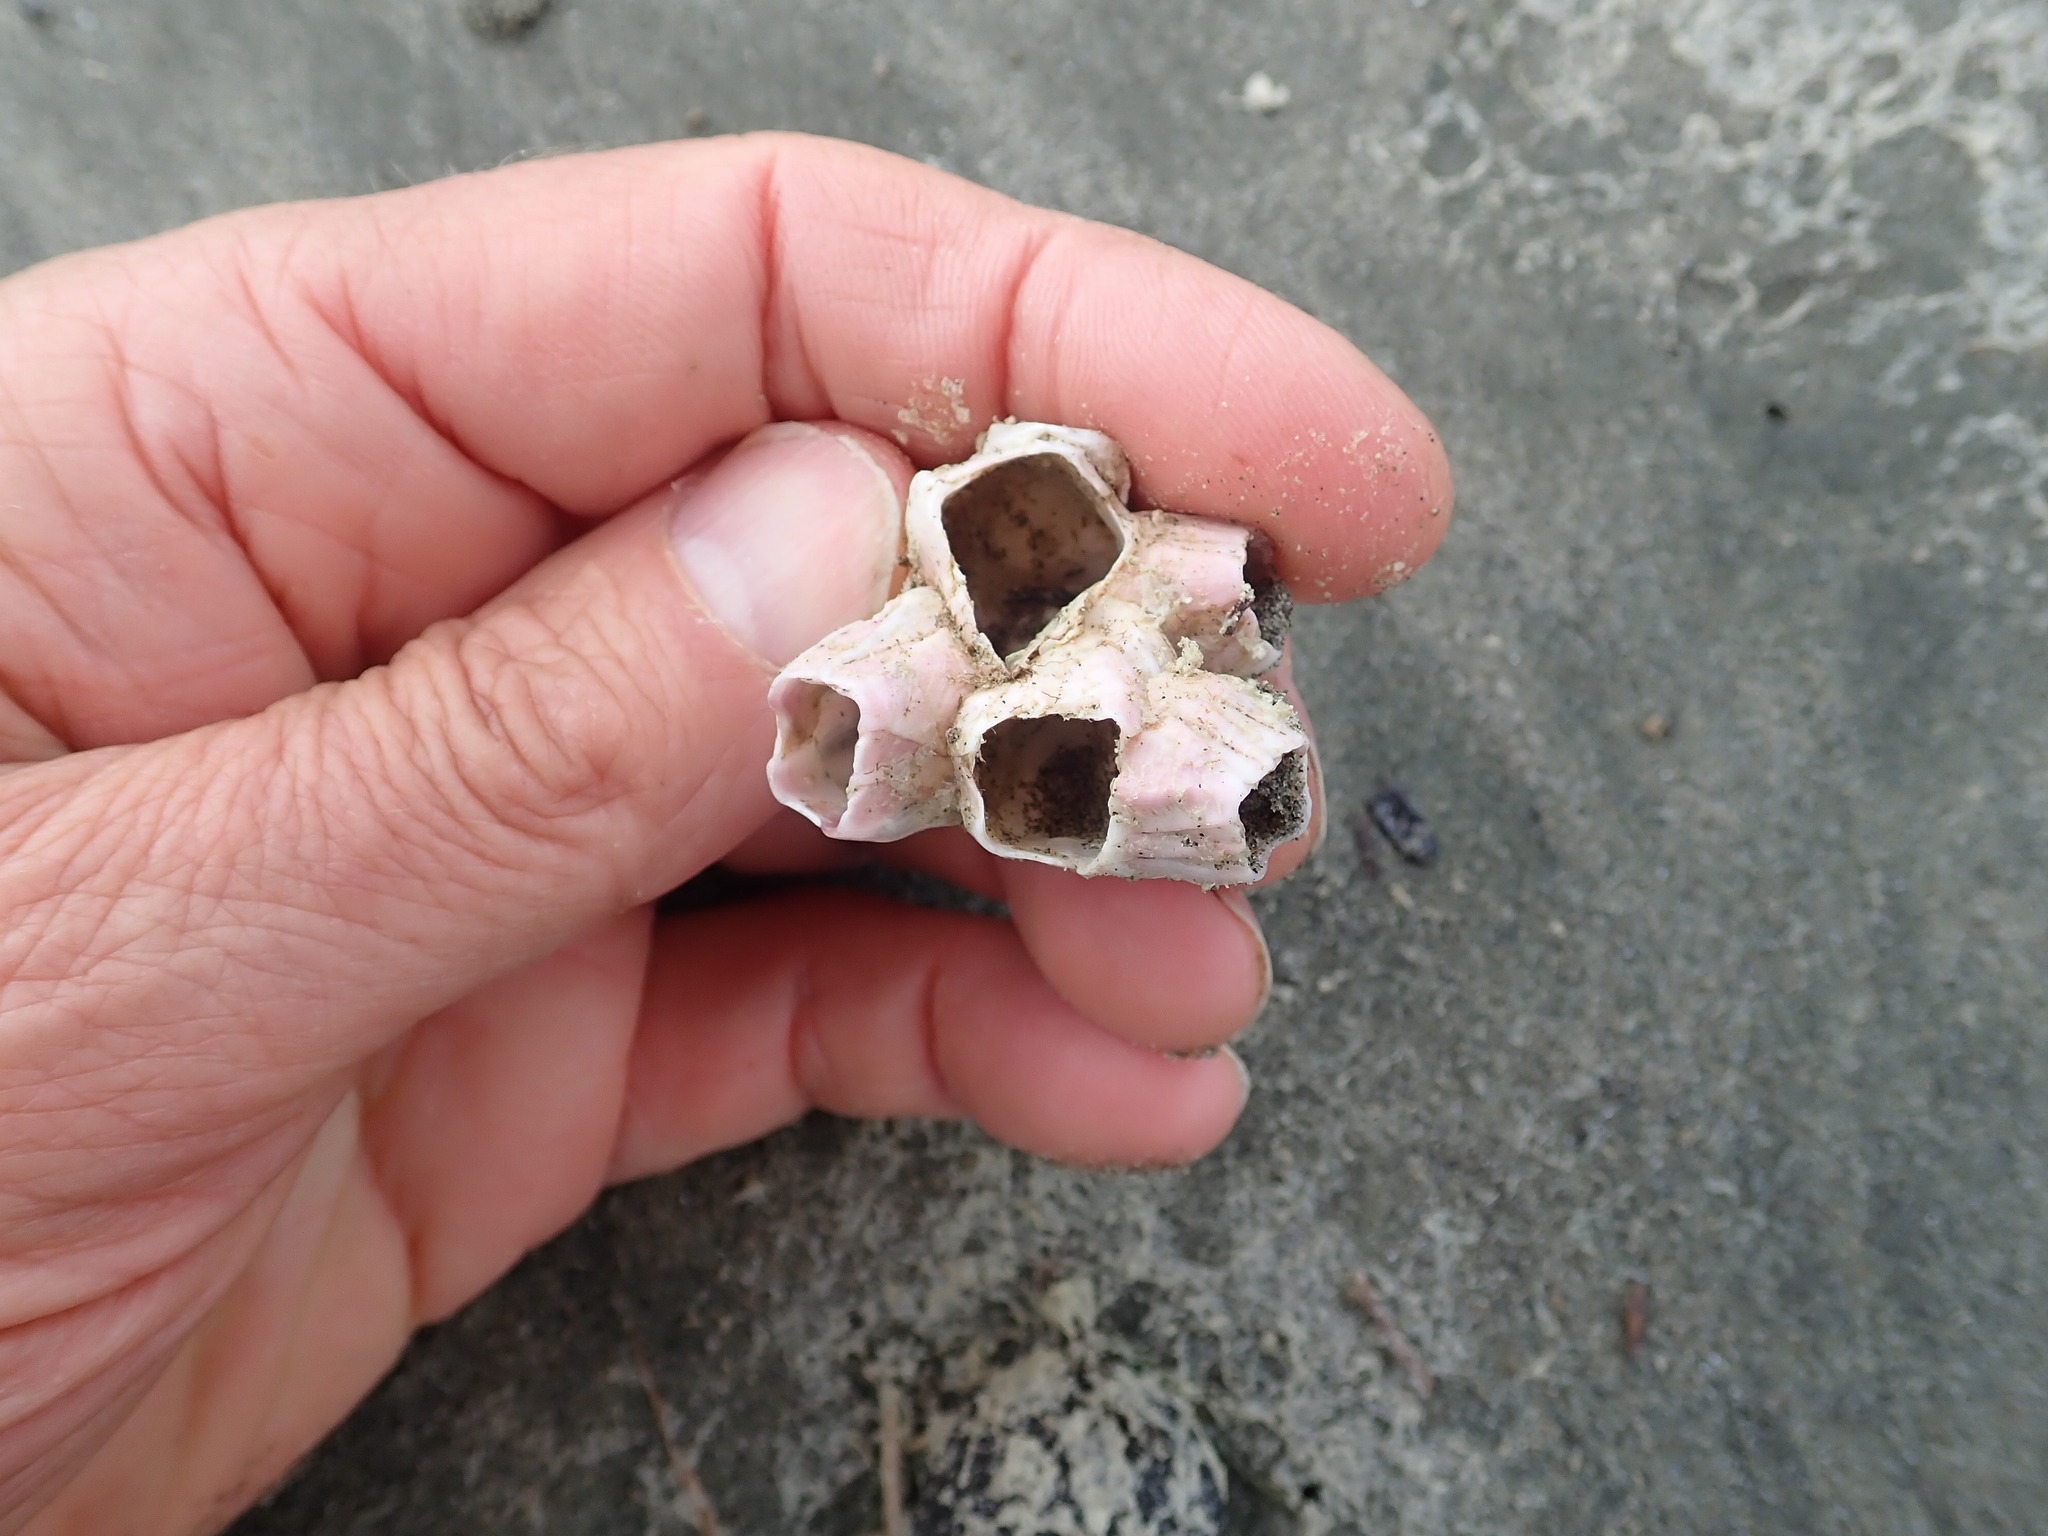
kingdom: Animalia
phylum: Arthropoda
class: Maxillopoda
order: Sessilia
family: Balanidae
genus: Notomegabalanus
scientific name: Notomegabalanus decorus
